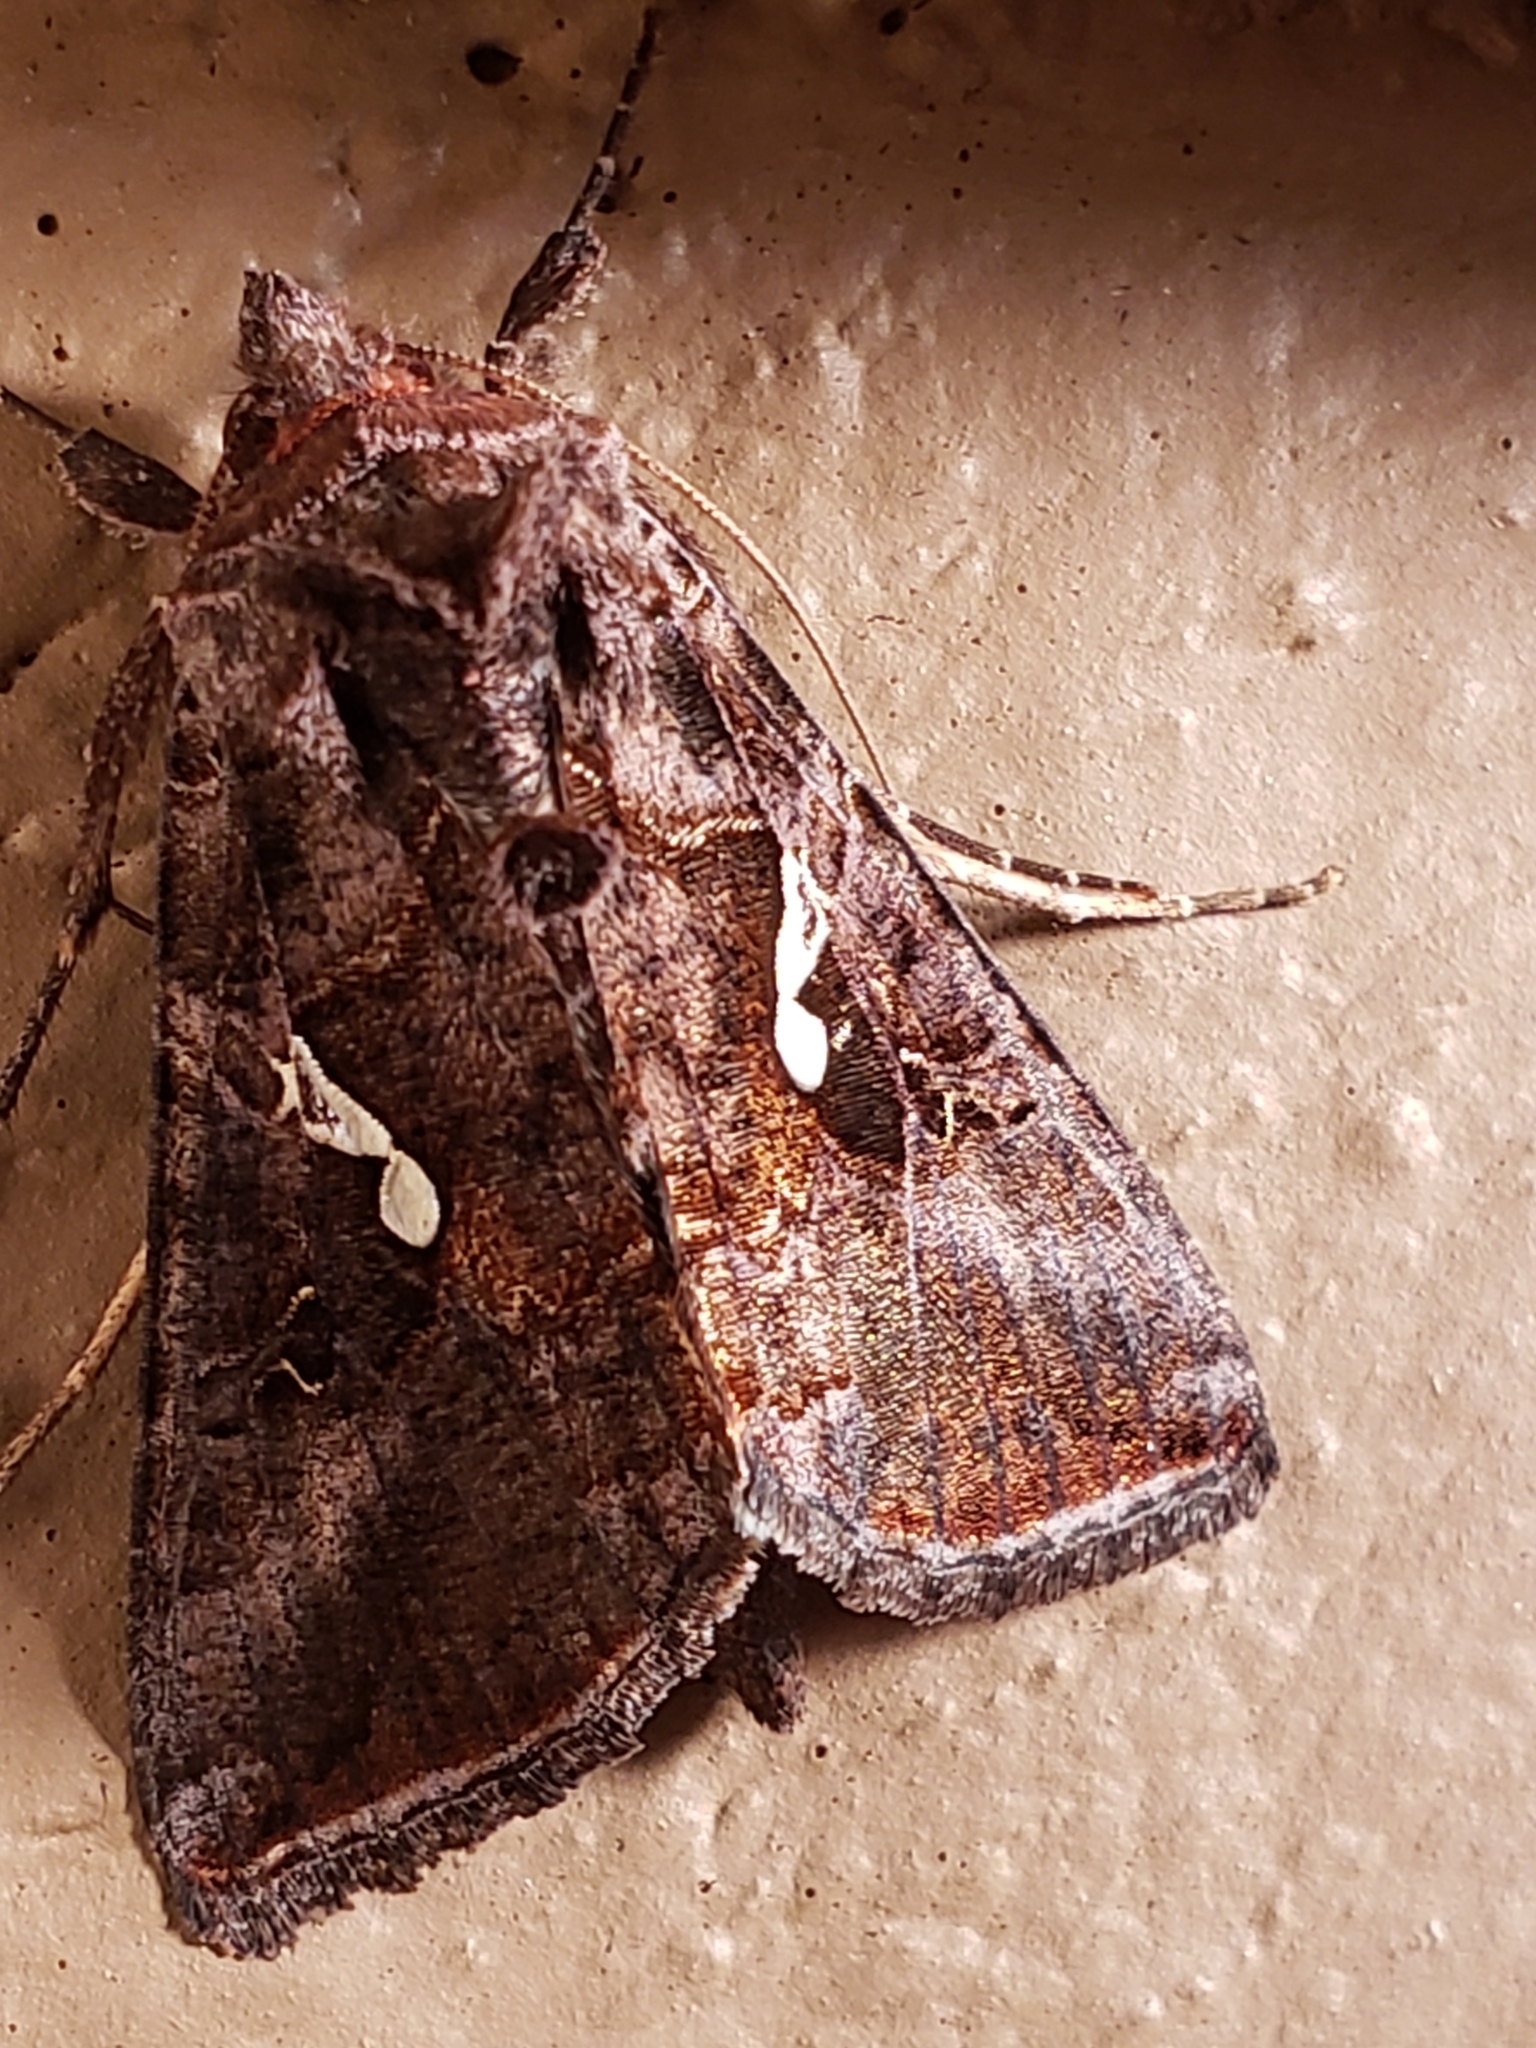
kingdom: Animalia
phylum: Arthropoda
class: Insecta
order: Lepidoptera
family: Noctuidae
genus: Autographa
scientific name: Autographa precationis
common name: Common looper moth
